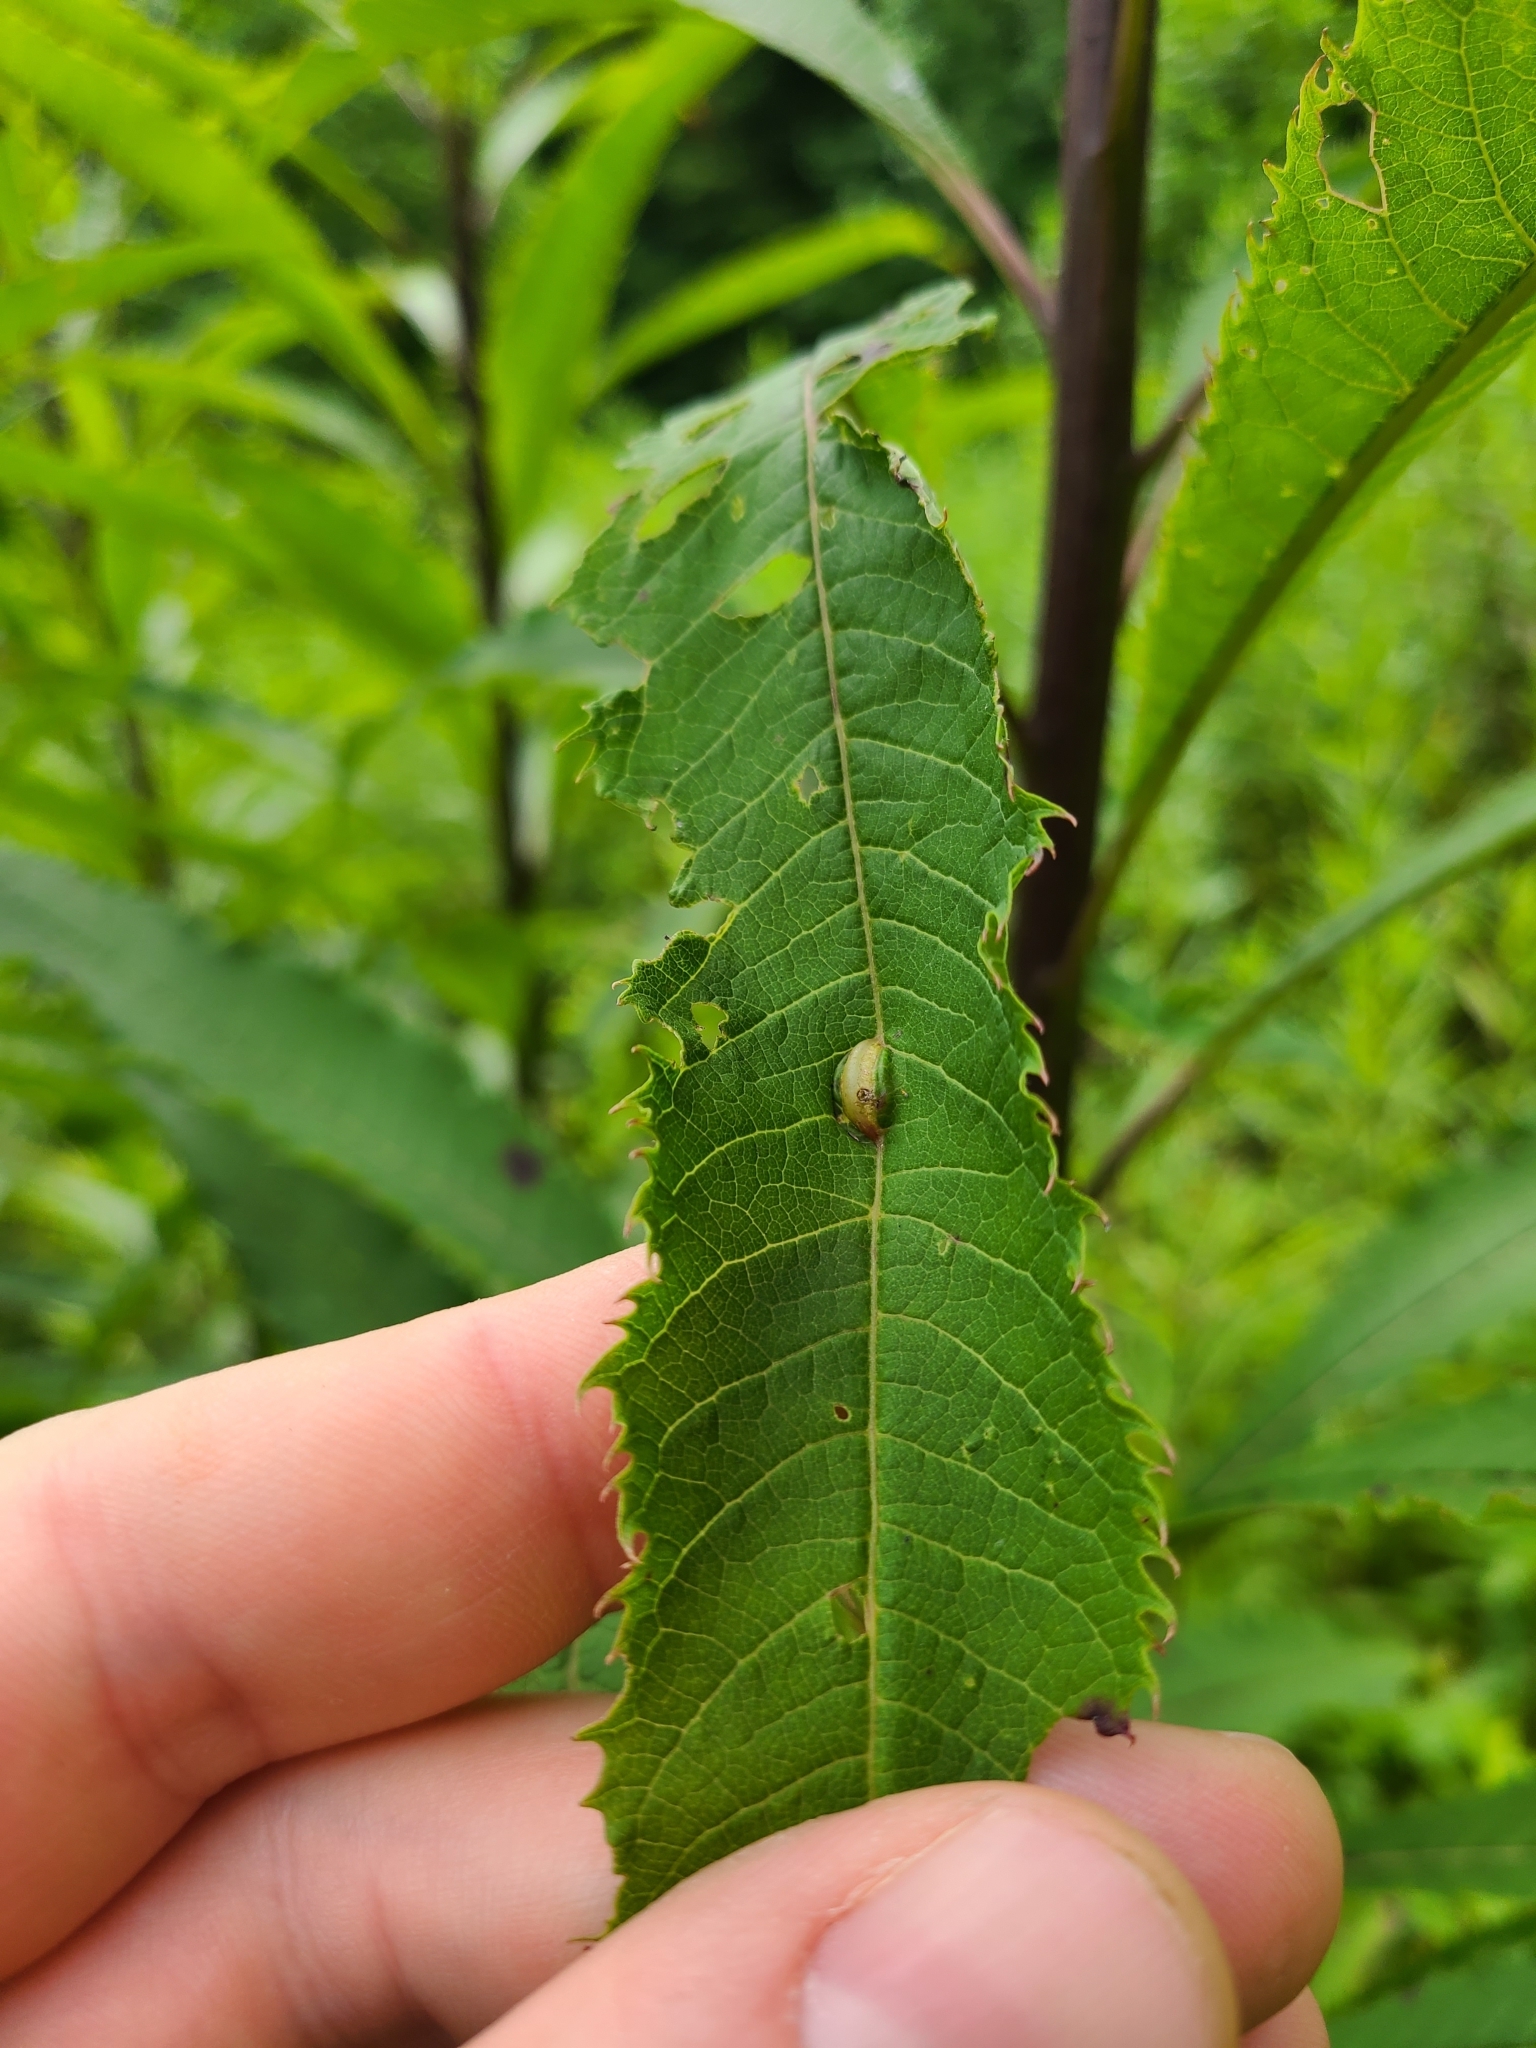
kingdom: Animalia
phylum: Arthropoda
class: Insecta
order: Diptera
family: Cecidomyiidae
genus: Neolasioptera
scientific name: Neolasioptera vernoniae
